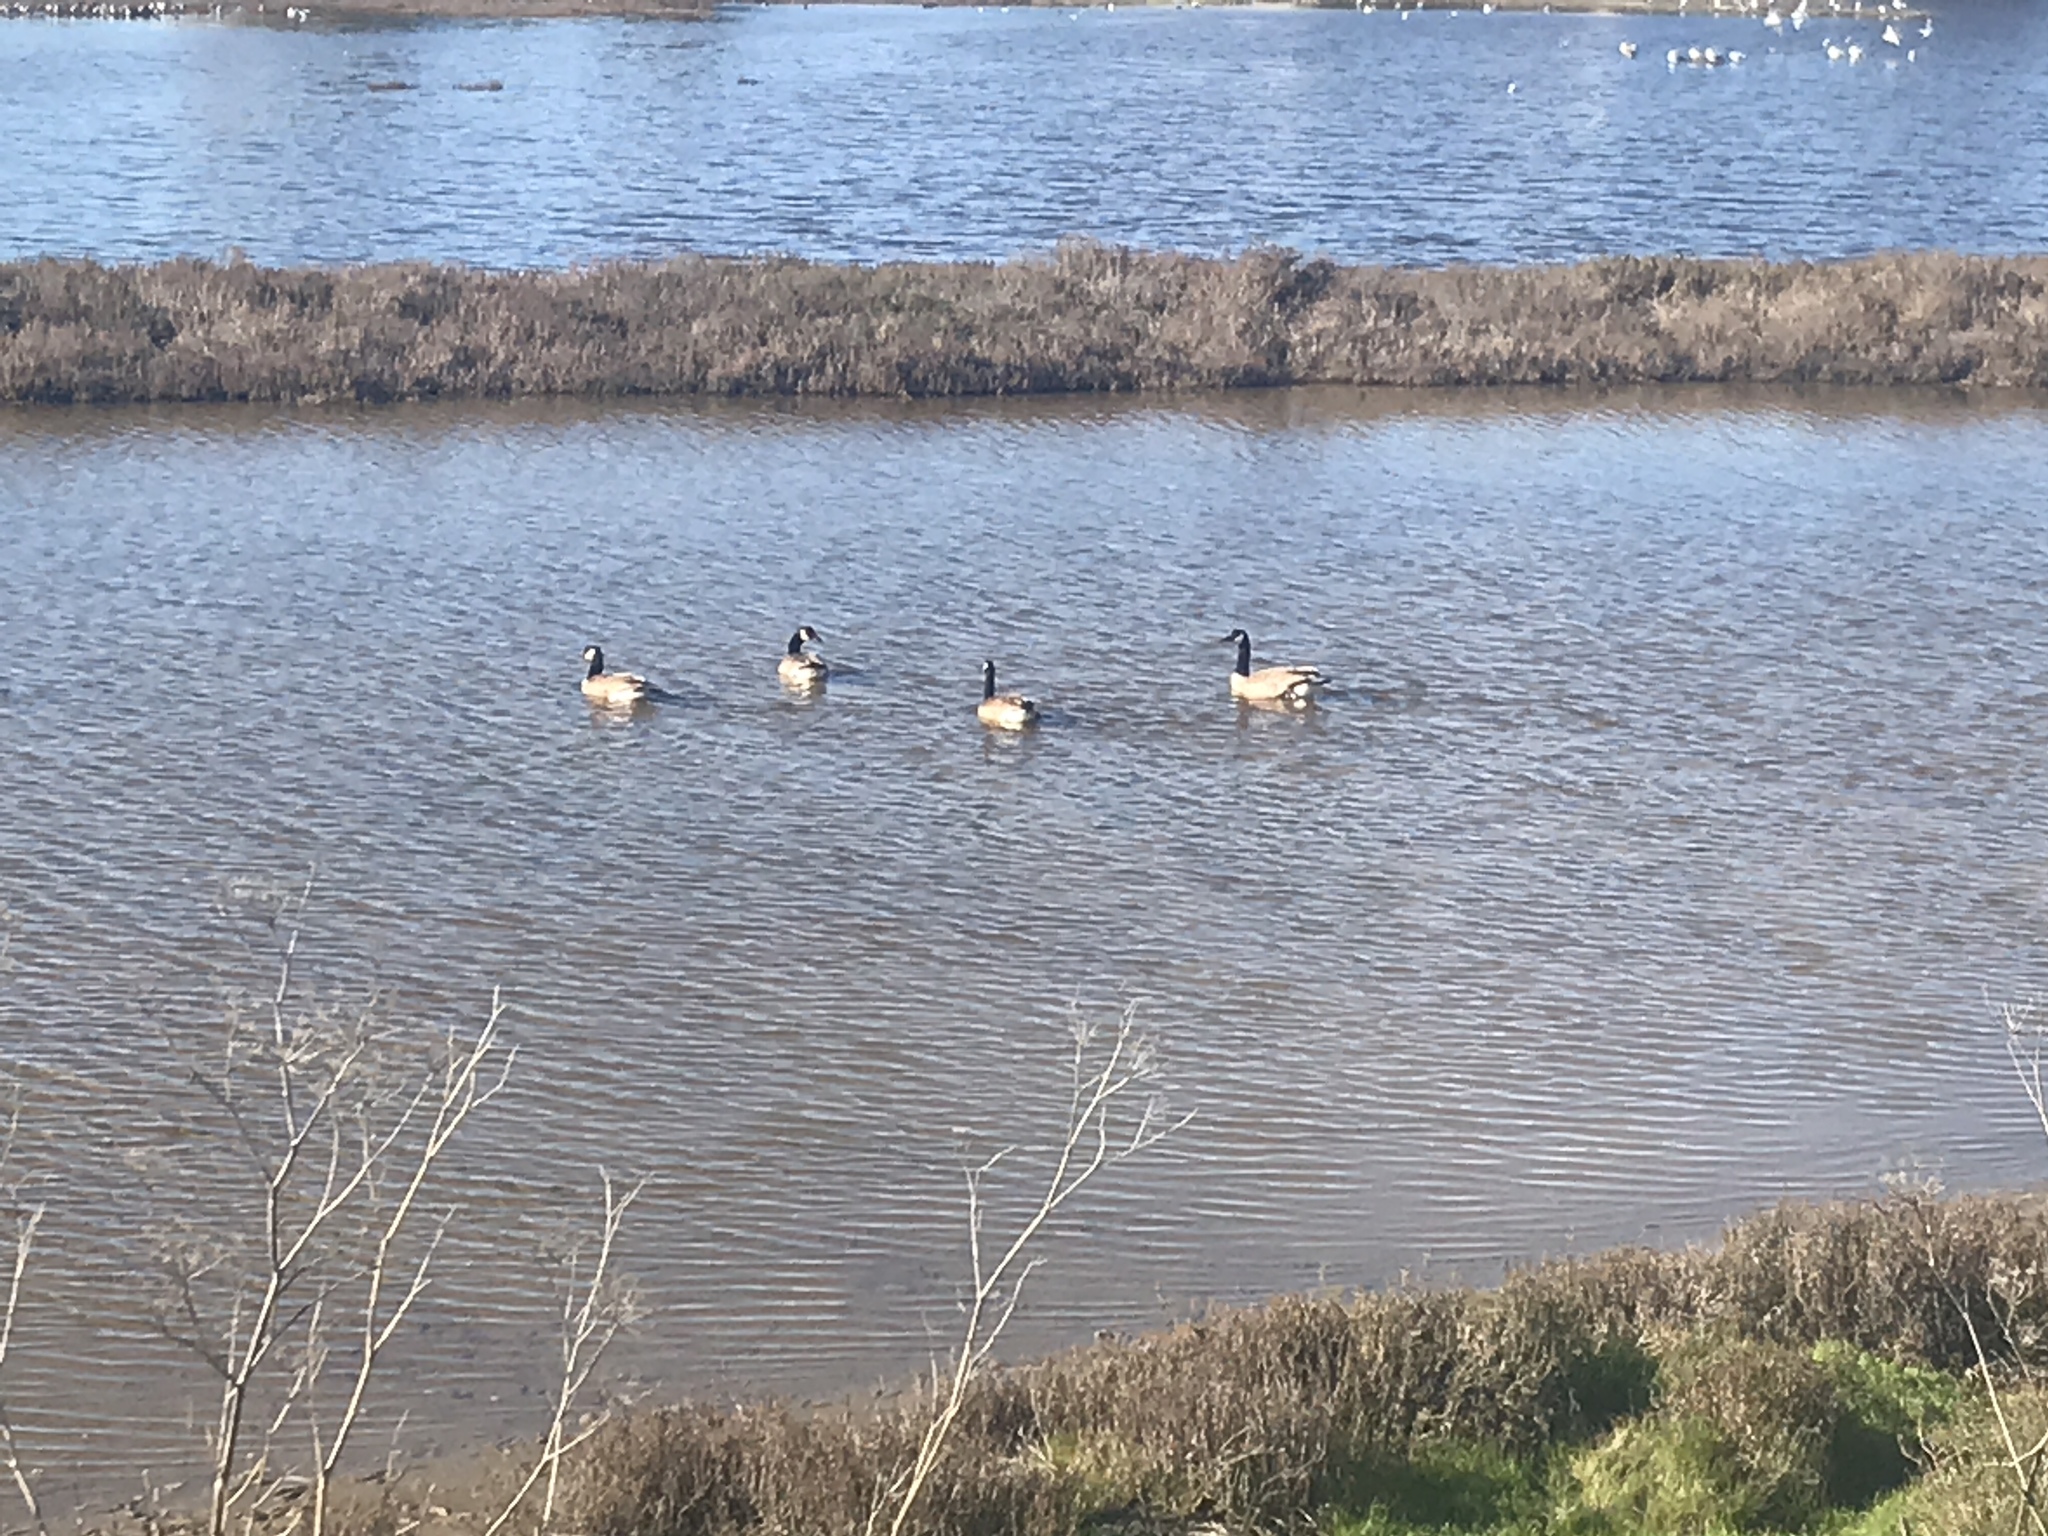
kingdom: Animalia
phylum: Chordata
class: Aves
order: Anseriformes
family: Anatidae
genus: Branta
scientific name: Branta canadensis
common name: Canada goose
